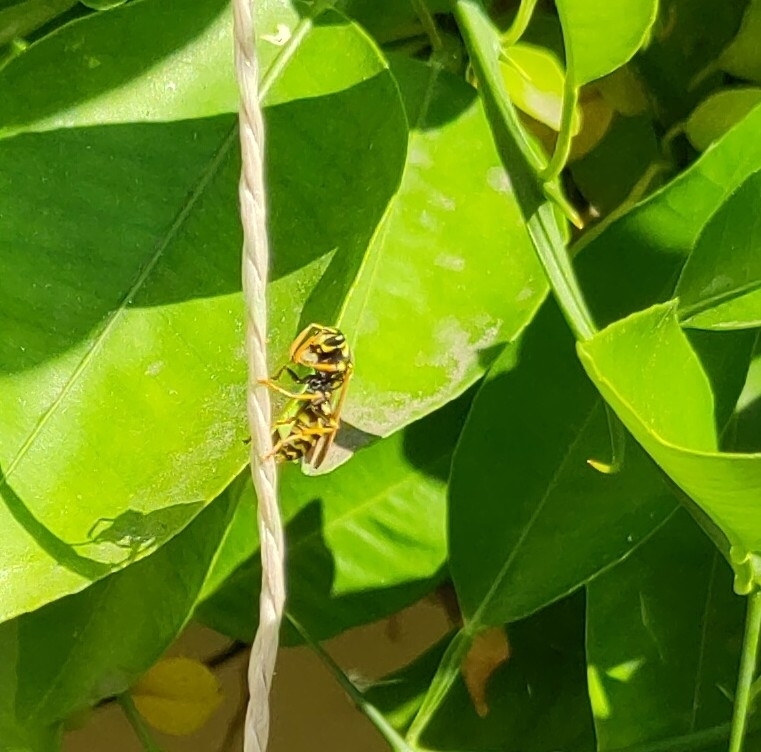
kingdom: Animalia
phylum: Arthropoda
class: Insecta
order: Hymenoptera
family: Eumenidae
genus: Polistes
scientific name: Polistes dominula
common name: Paper wasp
